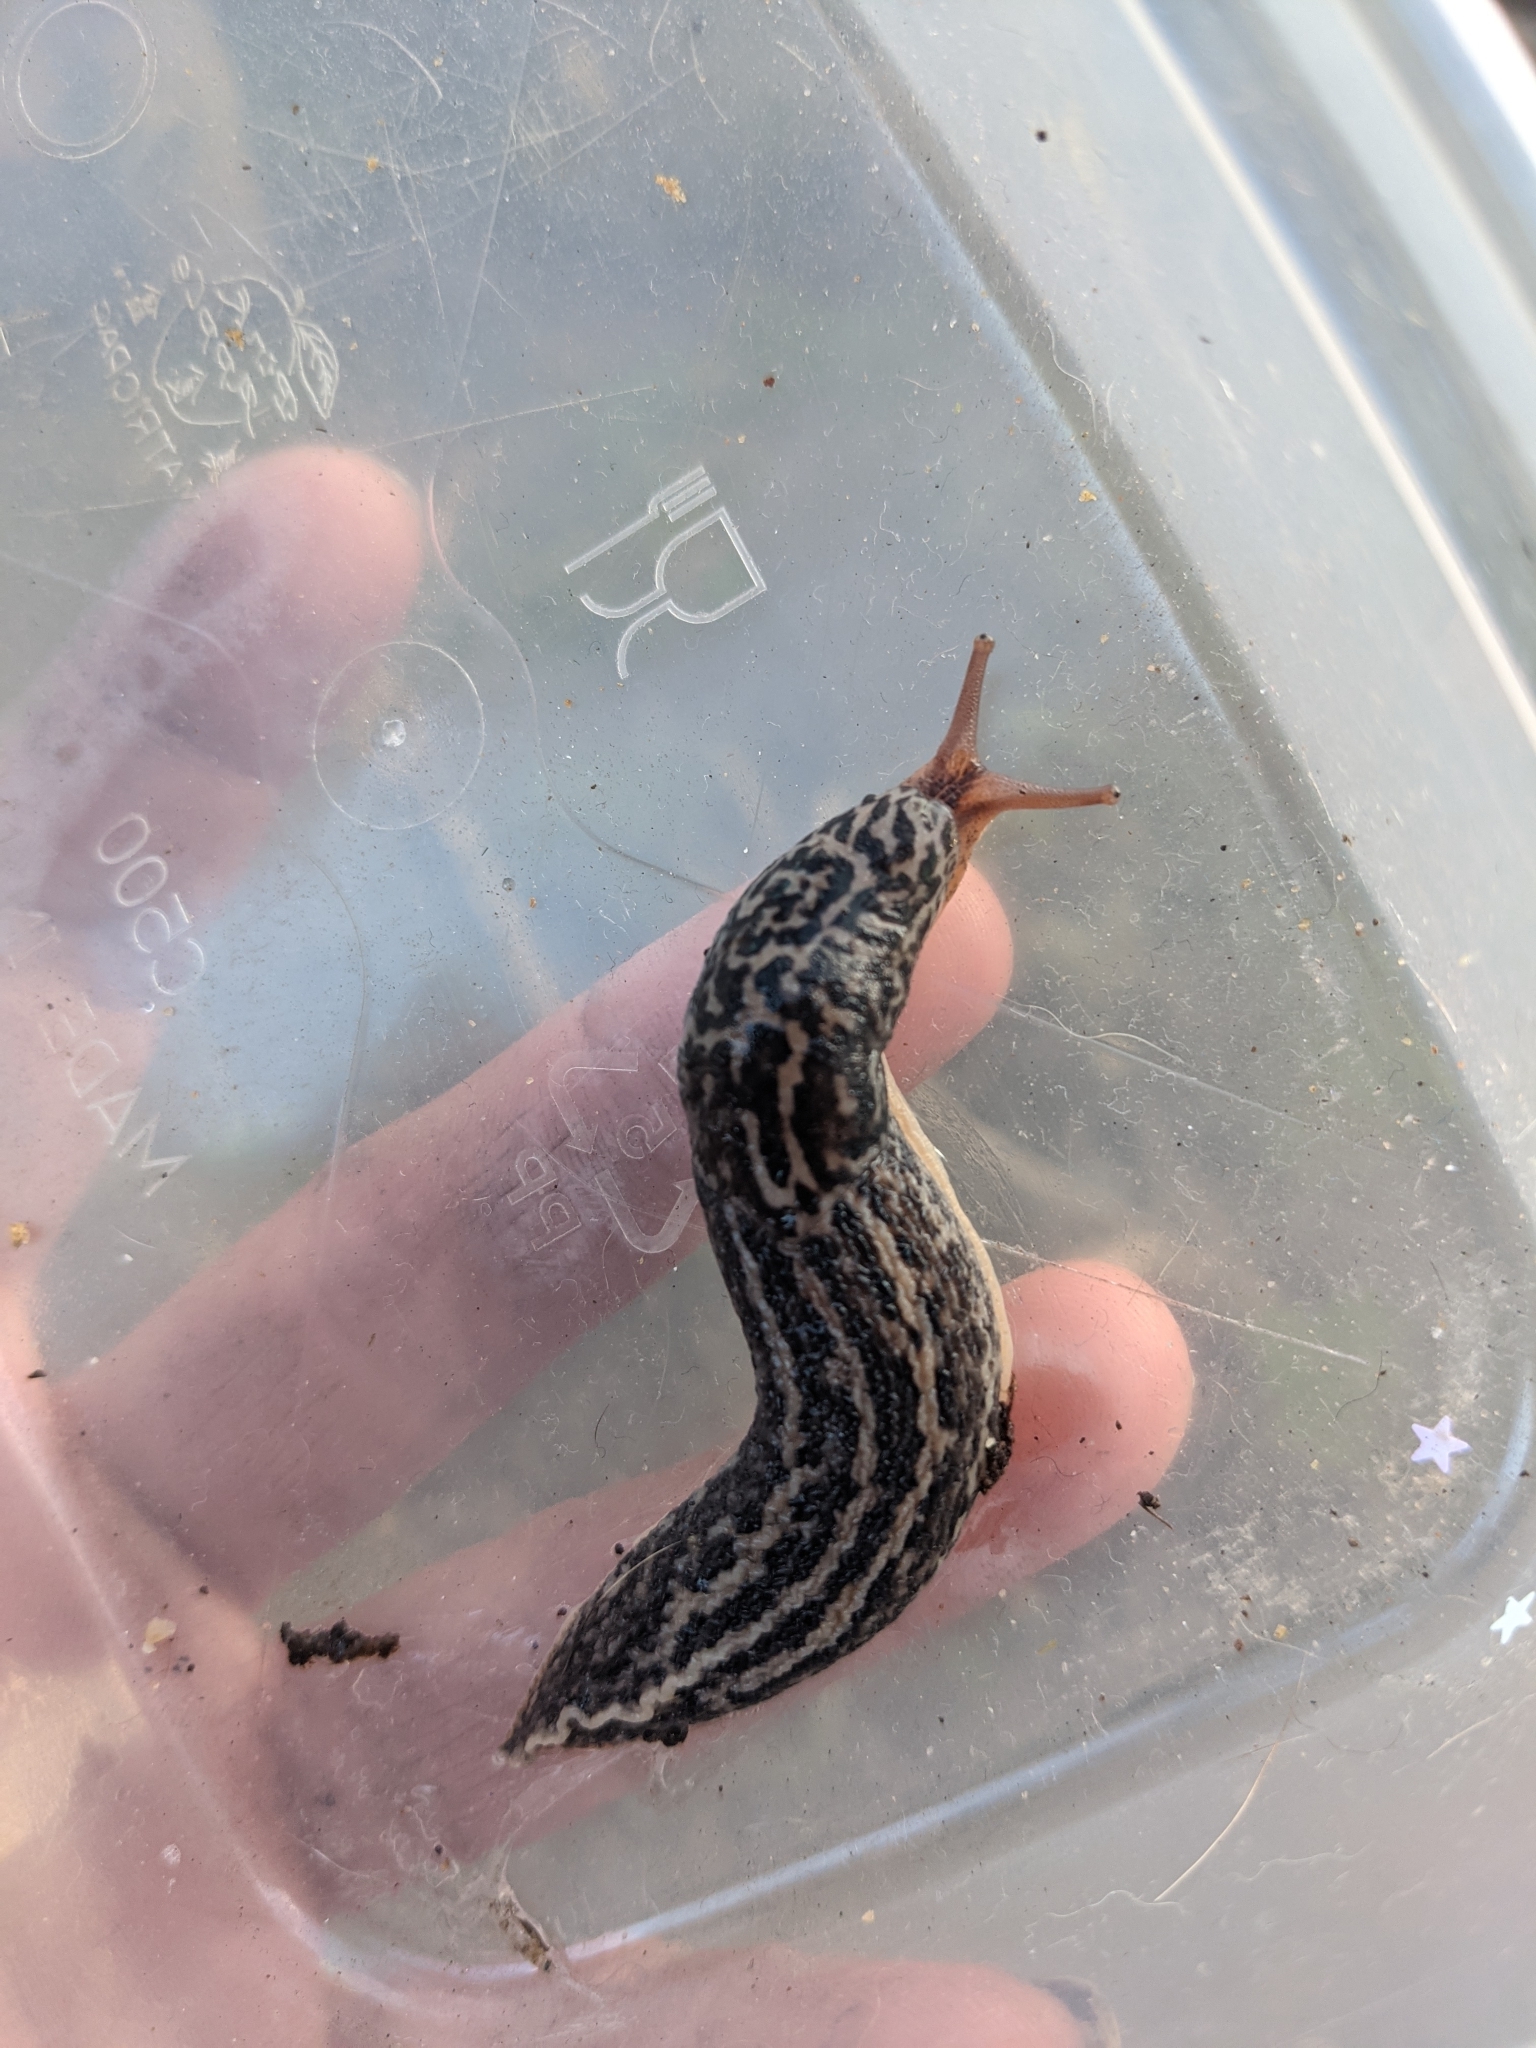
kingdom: Animalia
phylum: Mollusca
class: Gastropoda
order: Stylommatophora
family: Limacidae
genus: Limax
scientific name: Limax maximus
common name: Great grey slug
